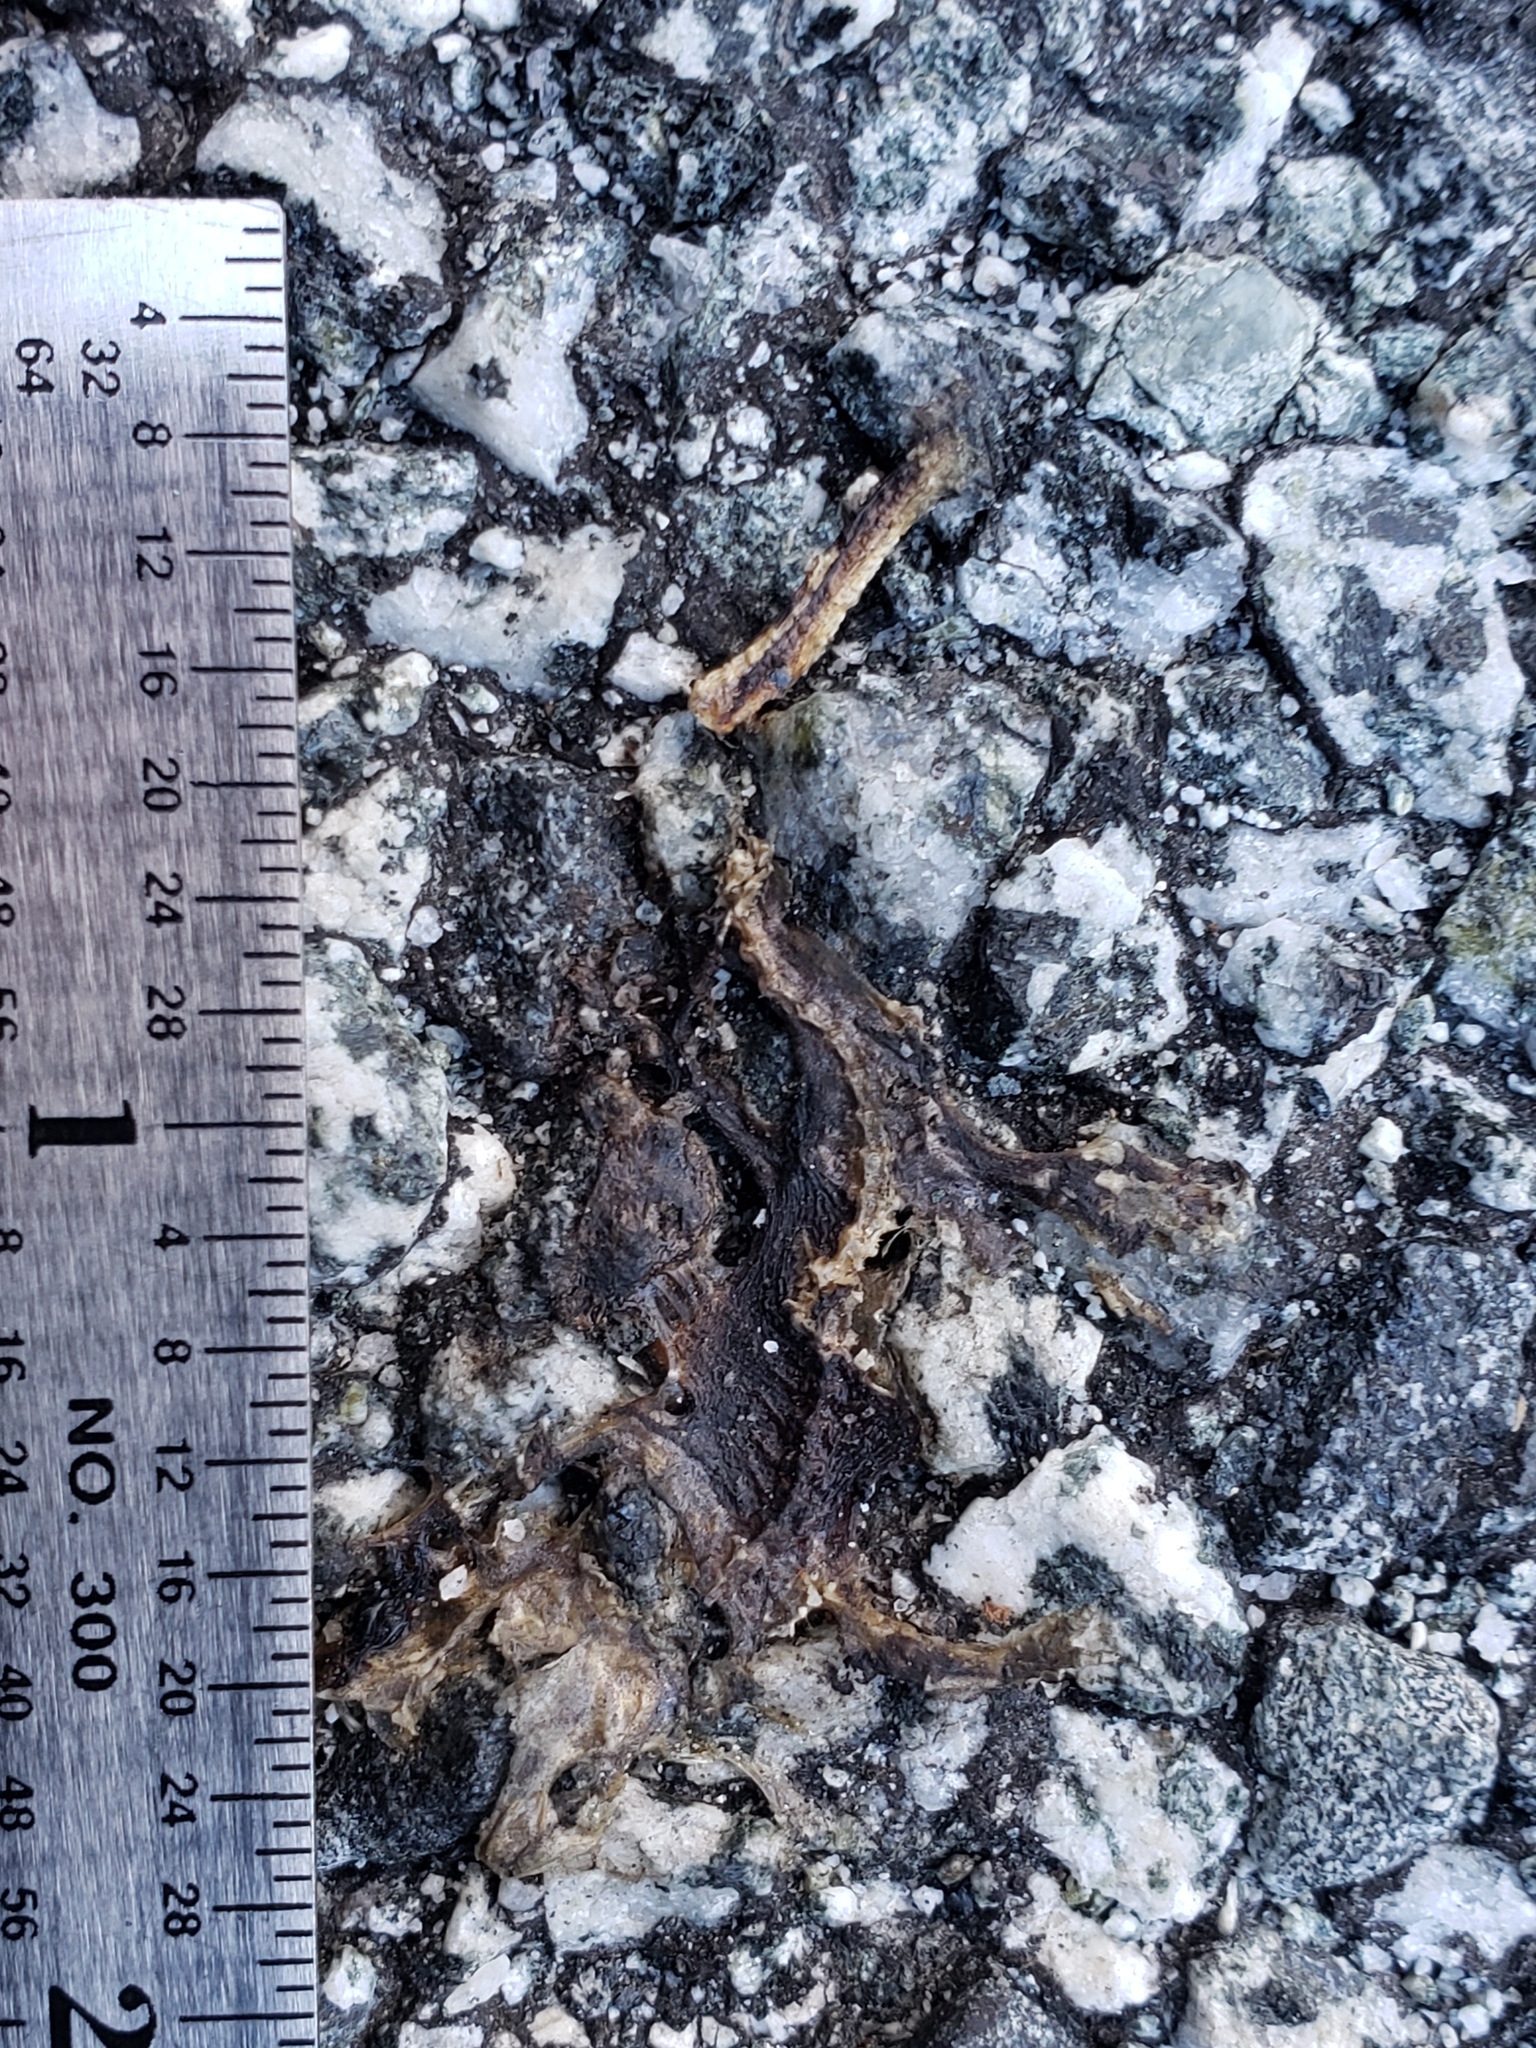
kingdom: Animalia
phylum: Chordata
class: Amphibia
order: Caudata
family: Salamandridae
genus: Taricha
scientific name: Taricha
